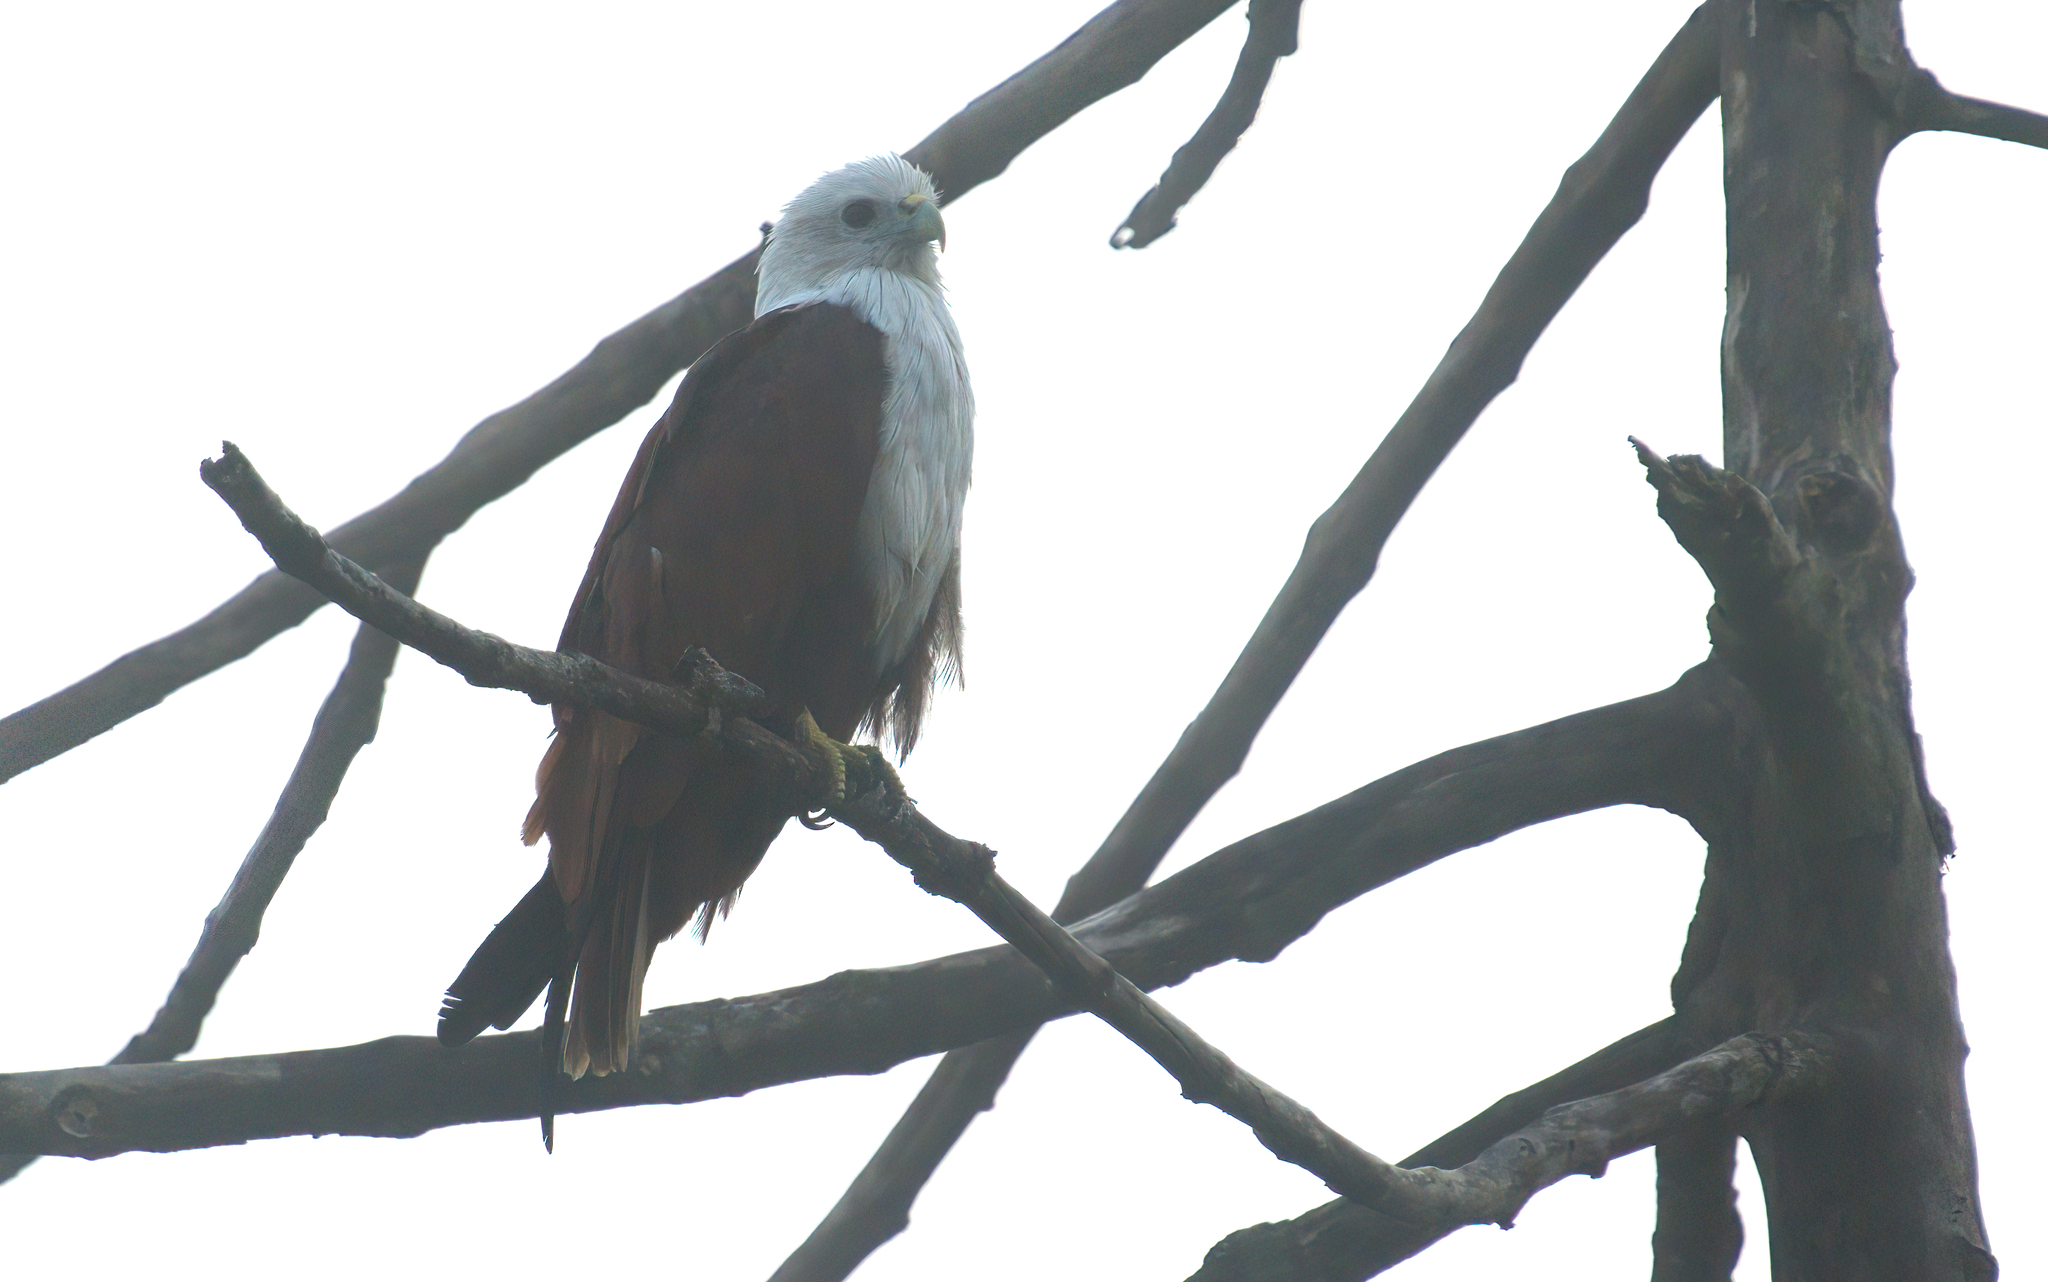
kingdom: Animalia
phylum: Chordata
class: Aves
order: Accipitriformes
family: Accipitridae
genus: Haliastur
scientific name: Haliastur indus
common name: Brahminy kite
